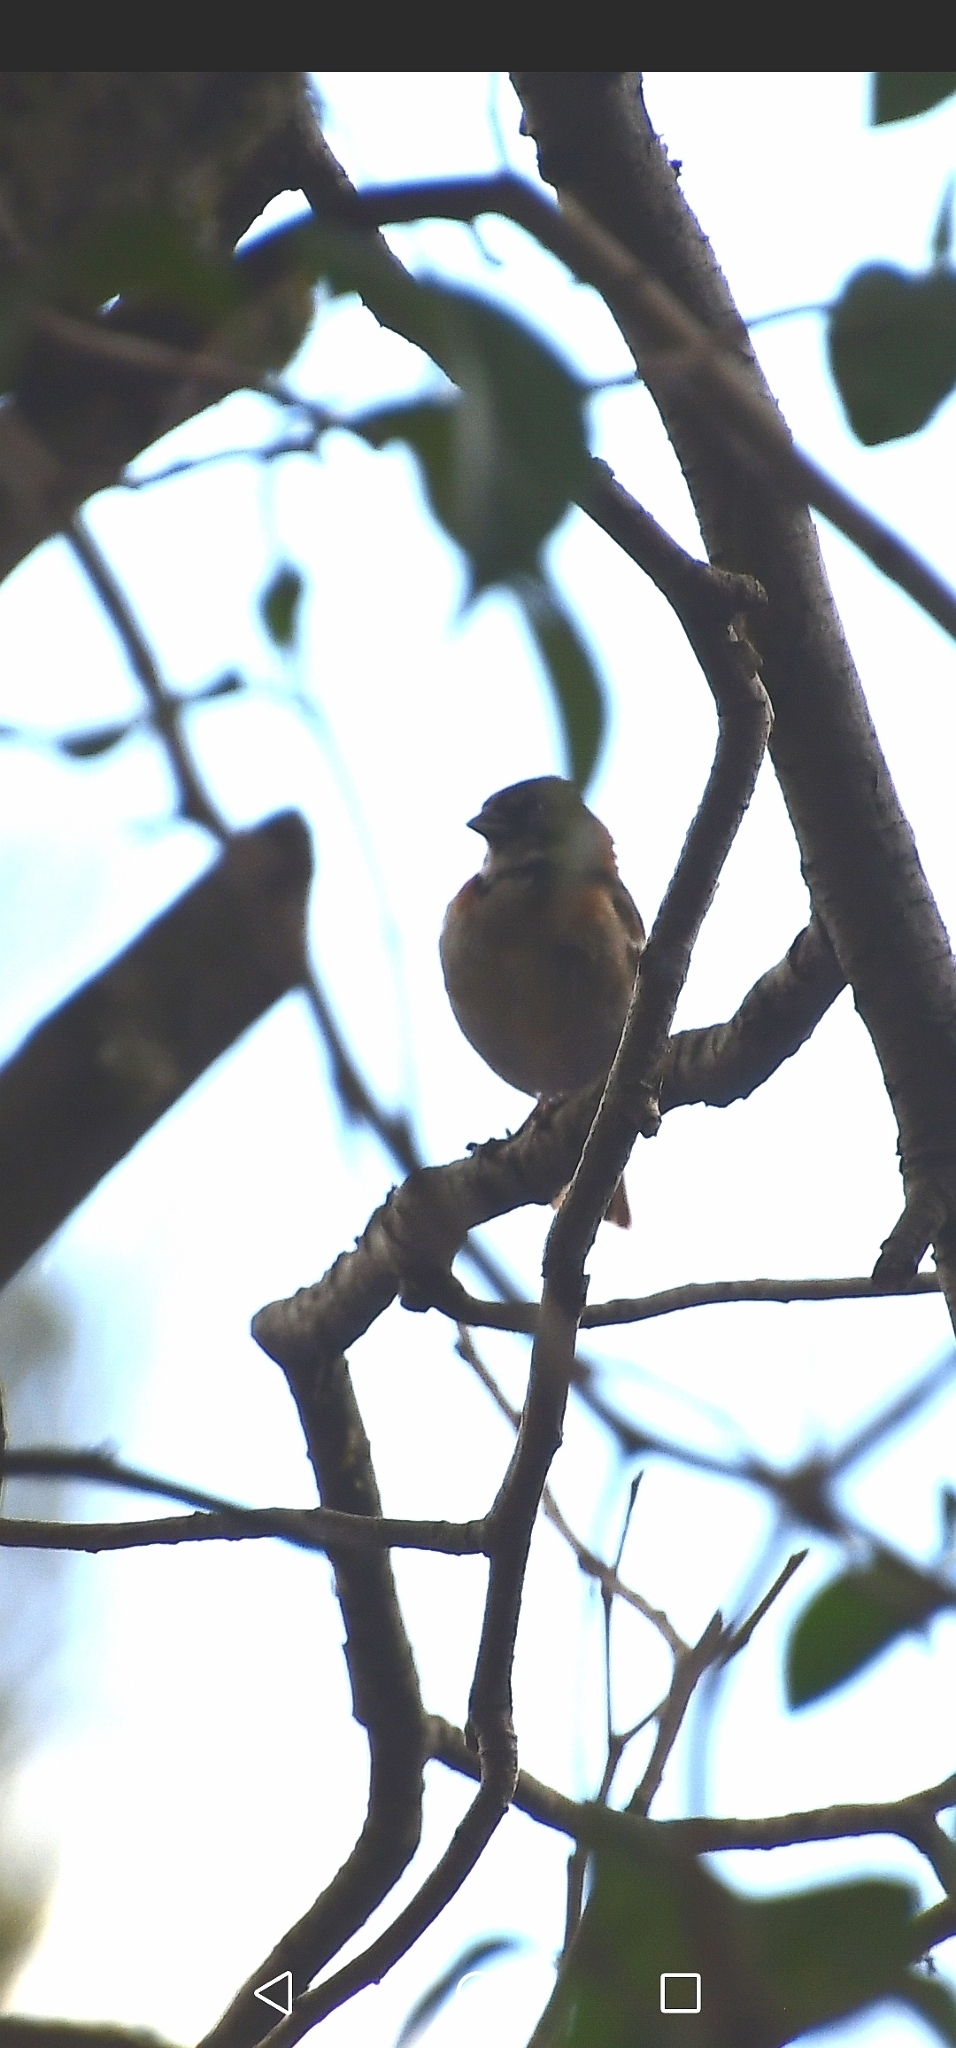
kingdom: Animalia
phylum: Chordata
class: Aves
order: Passeriformes
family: Passerellidae
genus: Zonotrichia
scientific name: Zonotrichia capensis
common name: Rufous-collared sparrow
